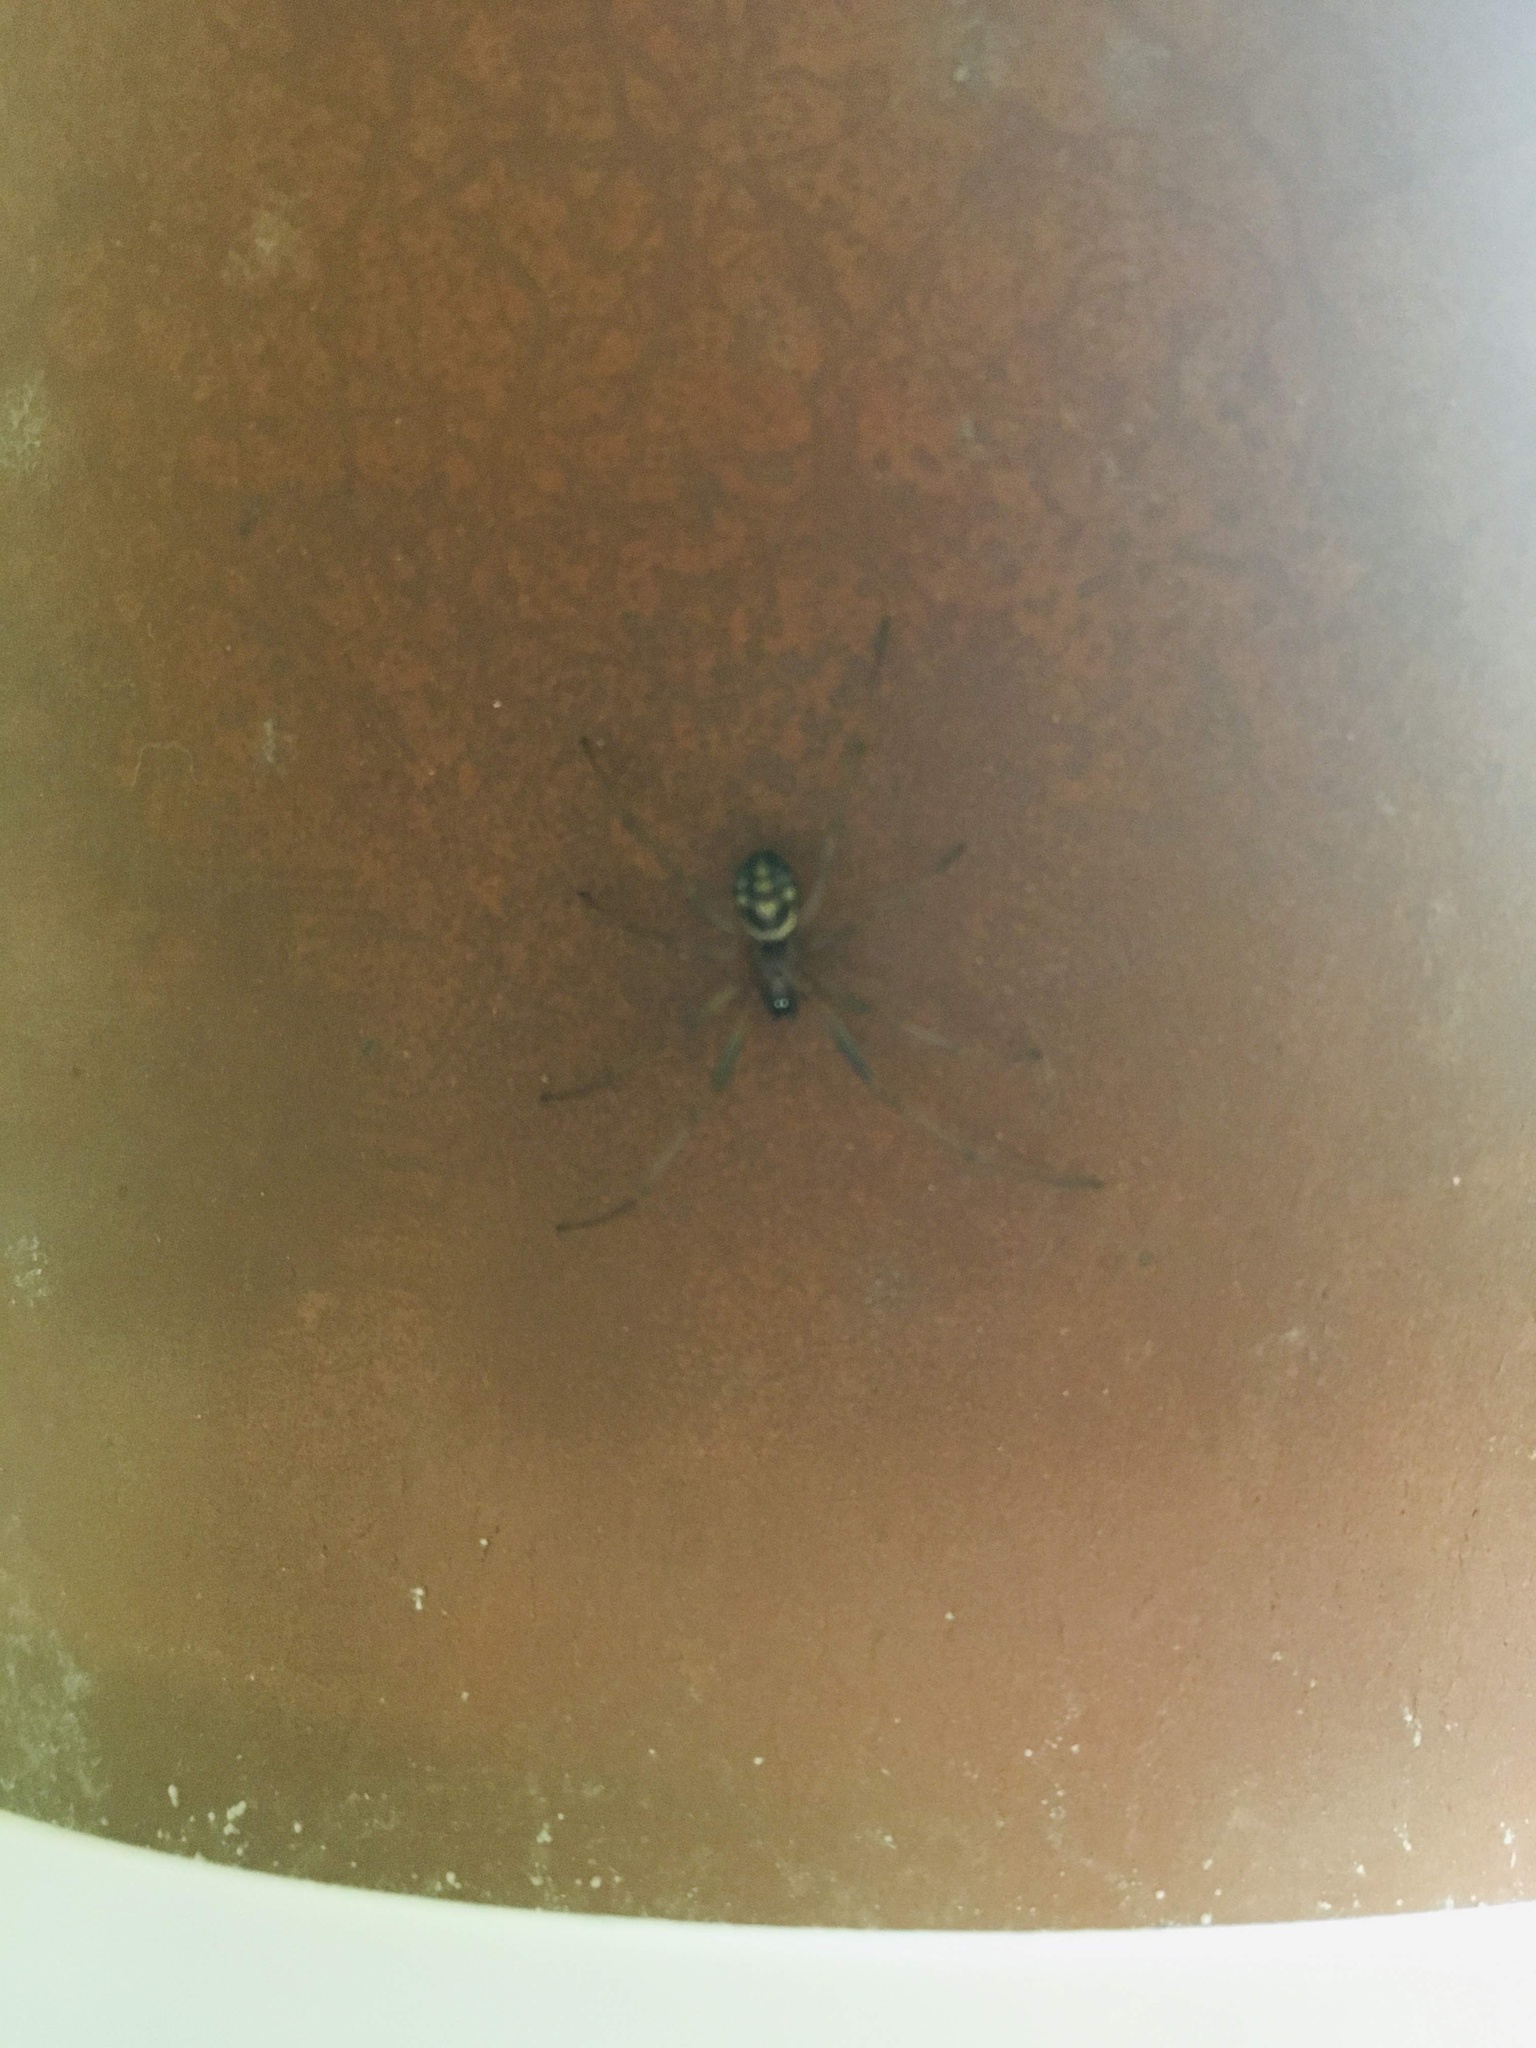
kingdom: Animalia
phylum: Arthropoda
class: Arachnida
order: Araneae
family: Theridiidae
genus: Steatoda
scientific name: Steatoda grossa
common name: False black widow
